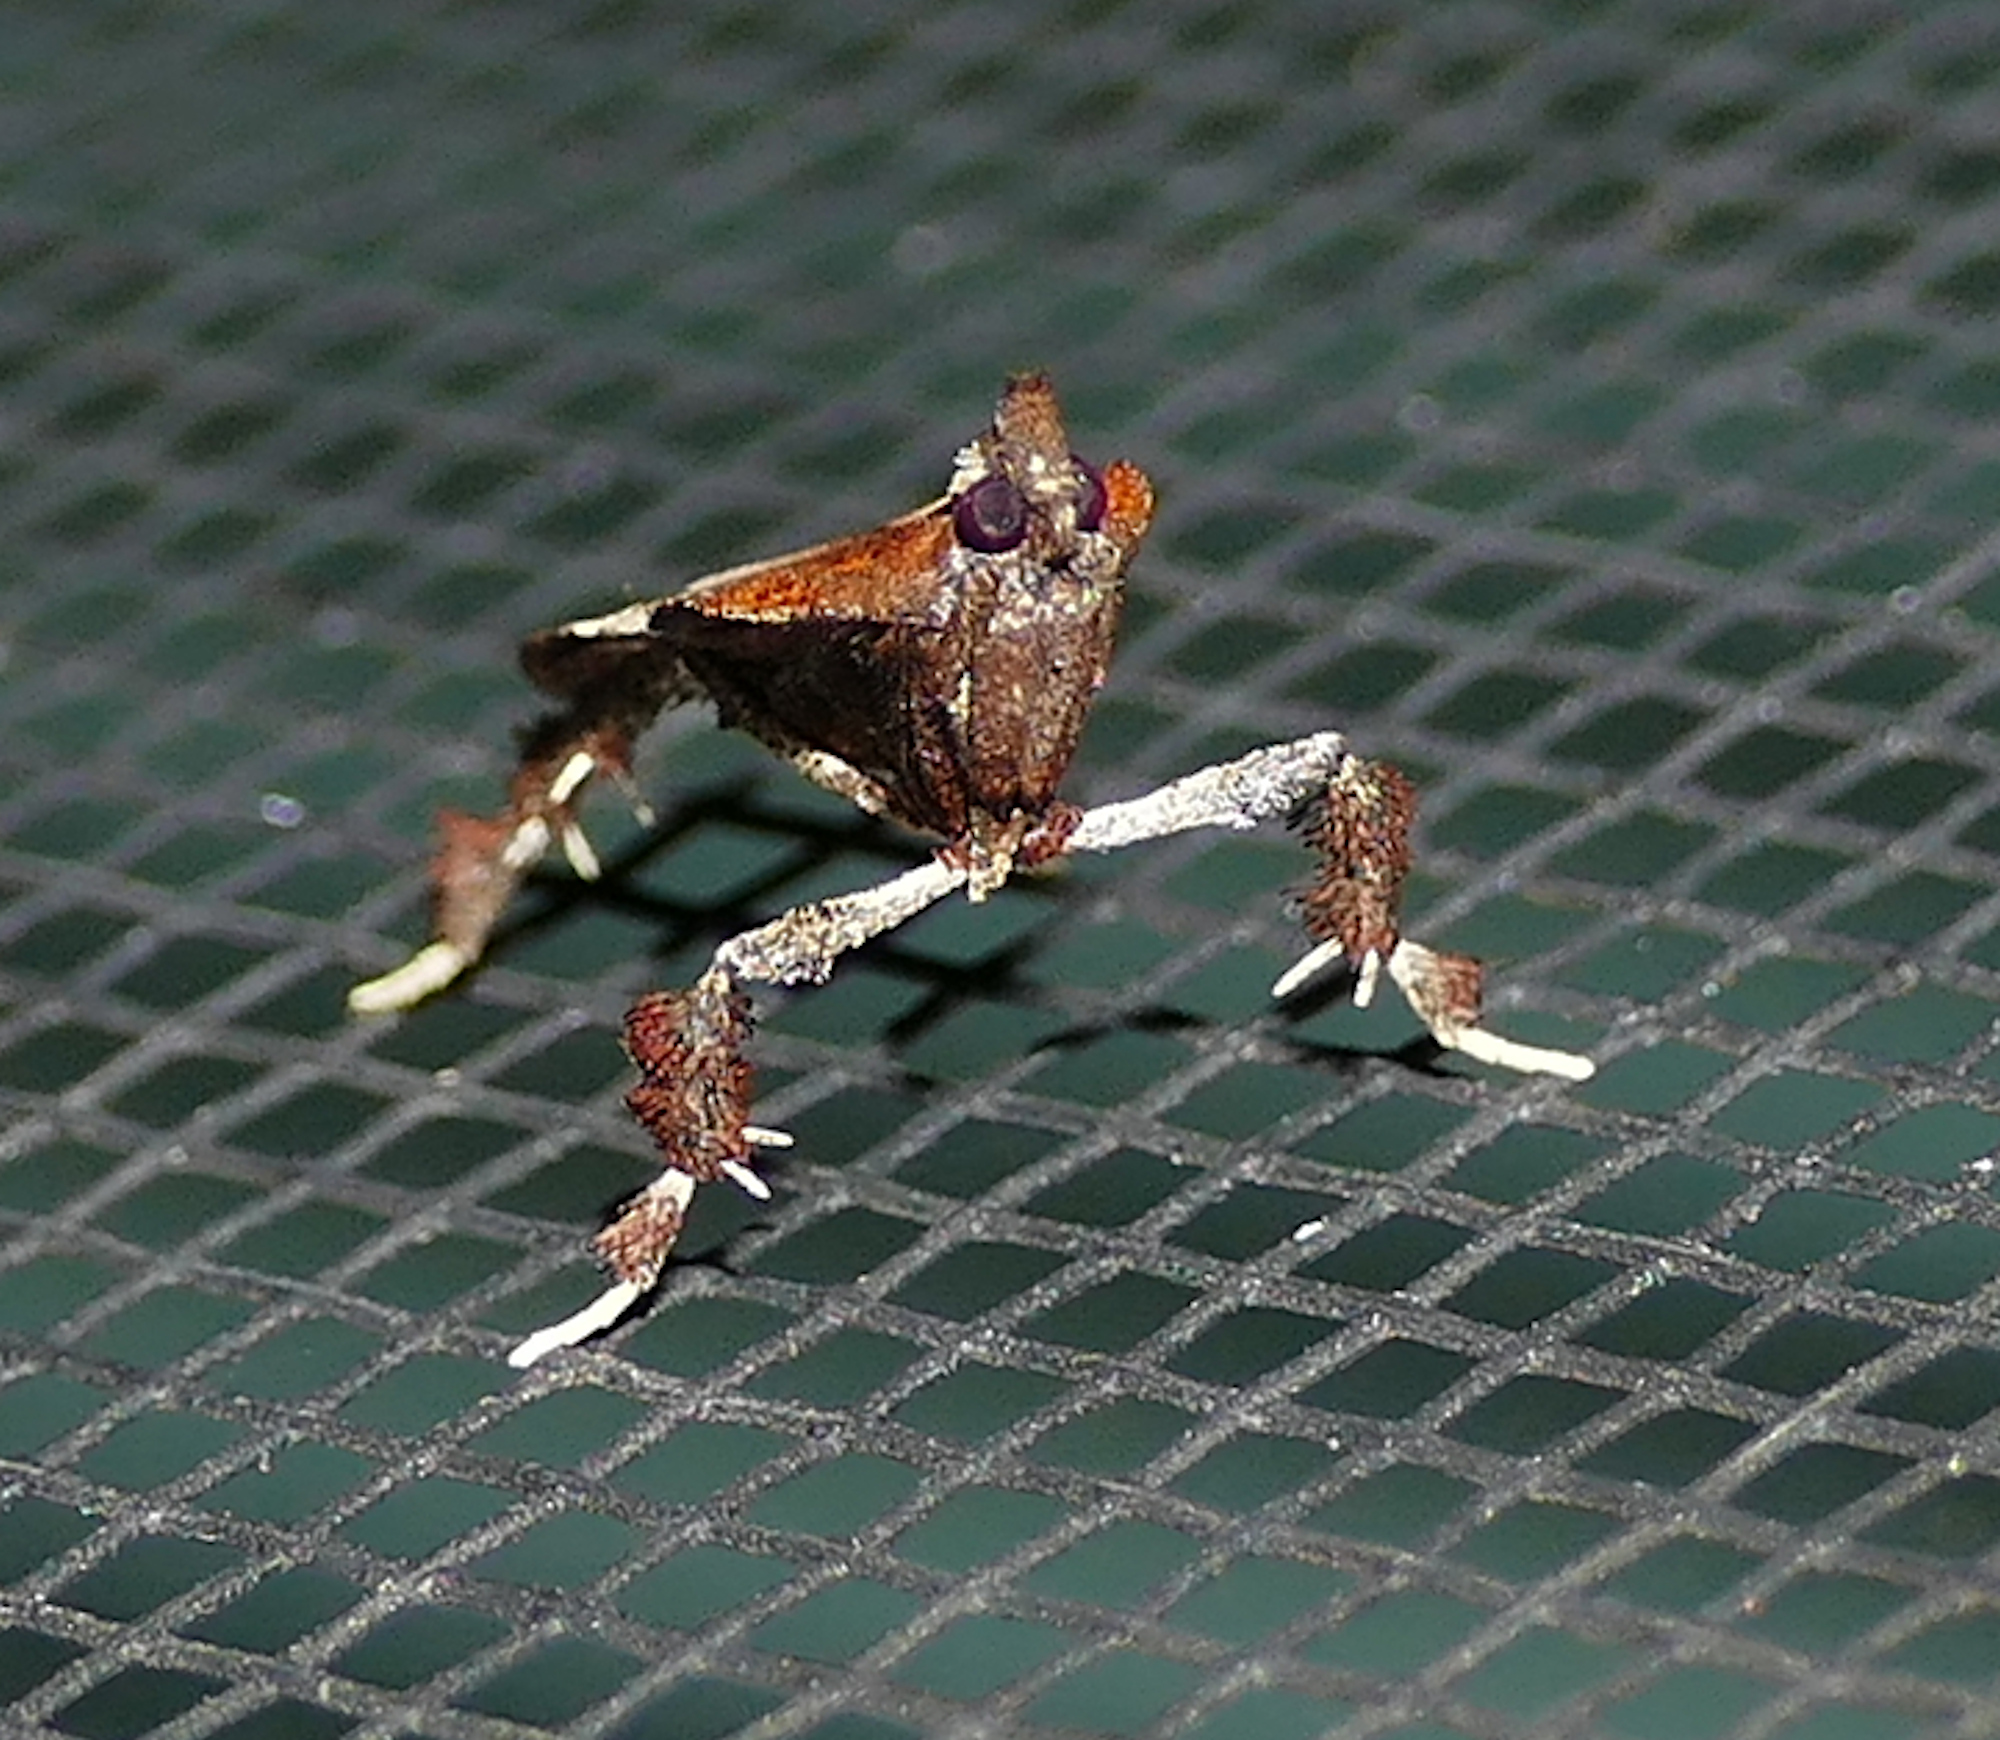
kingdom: Animalia
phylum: Arthropoda
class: Insecta
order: Lepidoptera
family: Pyralidae
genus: Galasa
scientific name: Galasa nigrinodis
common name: Boxwood leaftier moth
